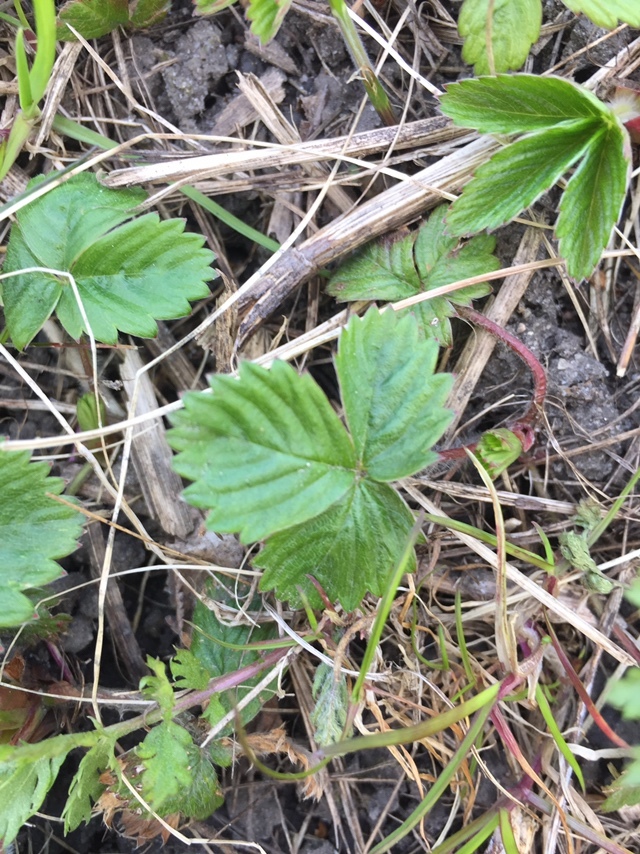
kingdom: Plantae
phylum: Tracheophyta
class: Magnoliopsida
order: Rosales
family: Rosaceae
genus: Fragaria
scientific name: Fragaria vesca
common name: Wild strawberry
